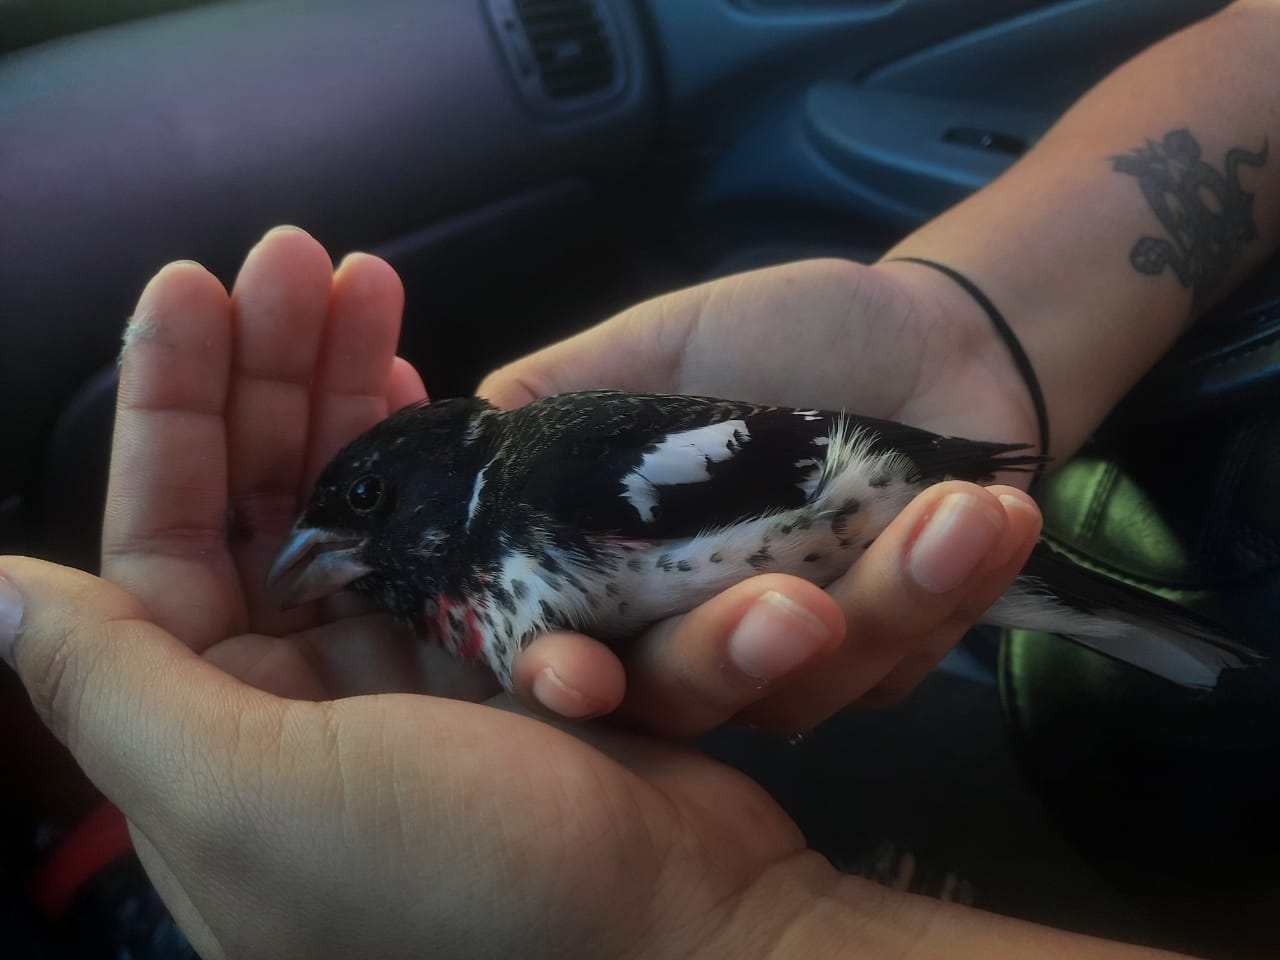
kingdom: Animalia
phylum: Chordata
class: Aves
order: Passeriformes
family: Cardinalidae
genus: Pheucticus
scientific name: Pheucticus ludovicianus
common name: Rose-breasted grosbeak
